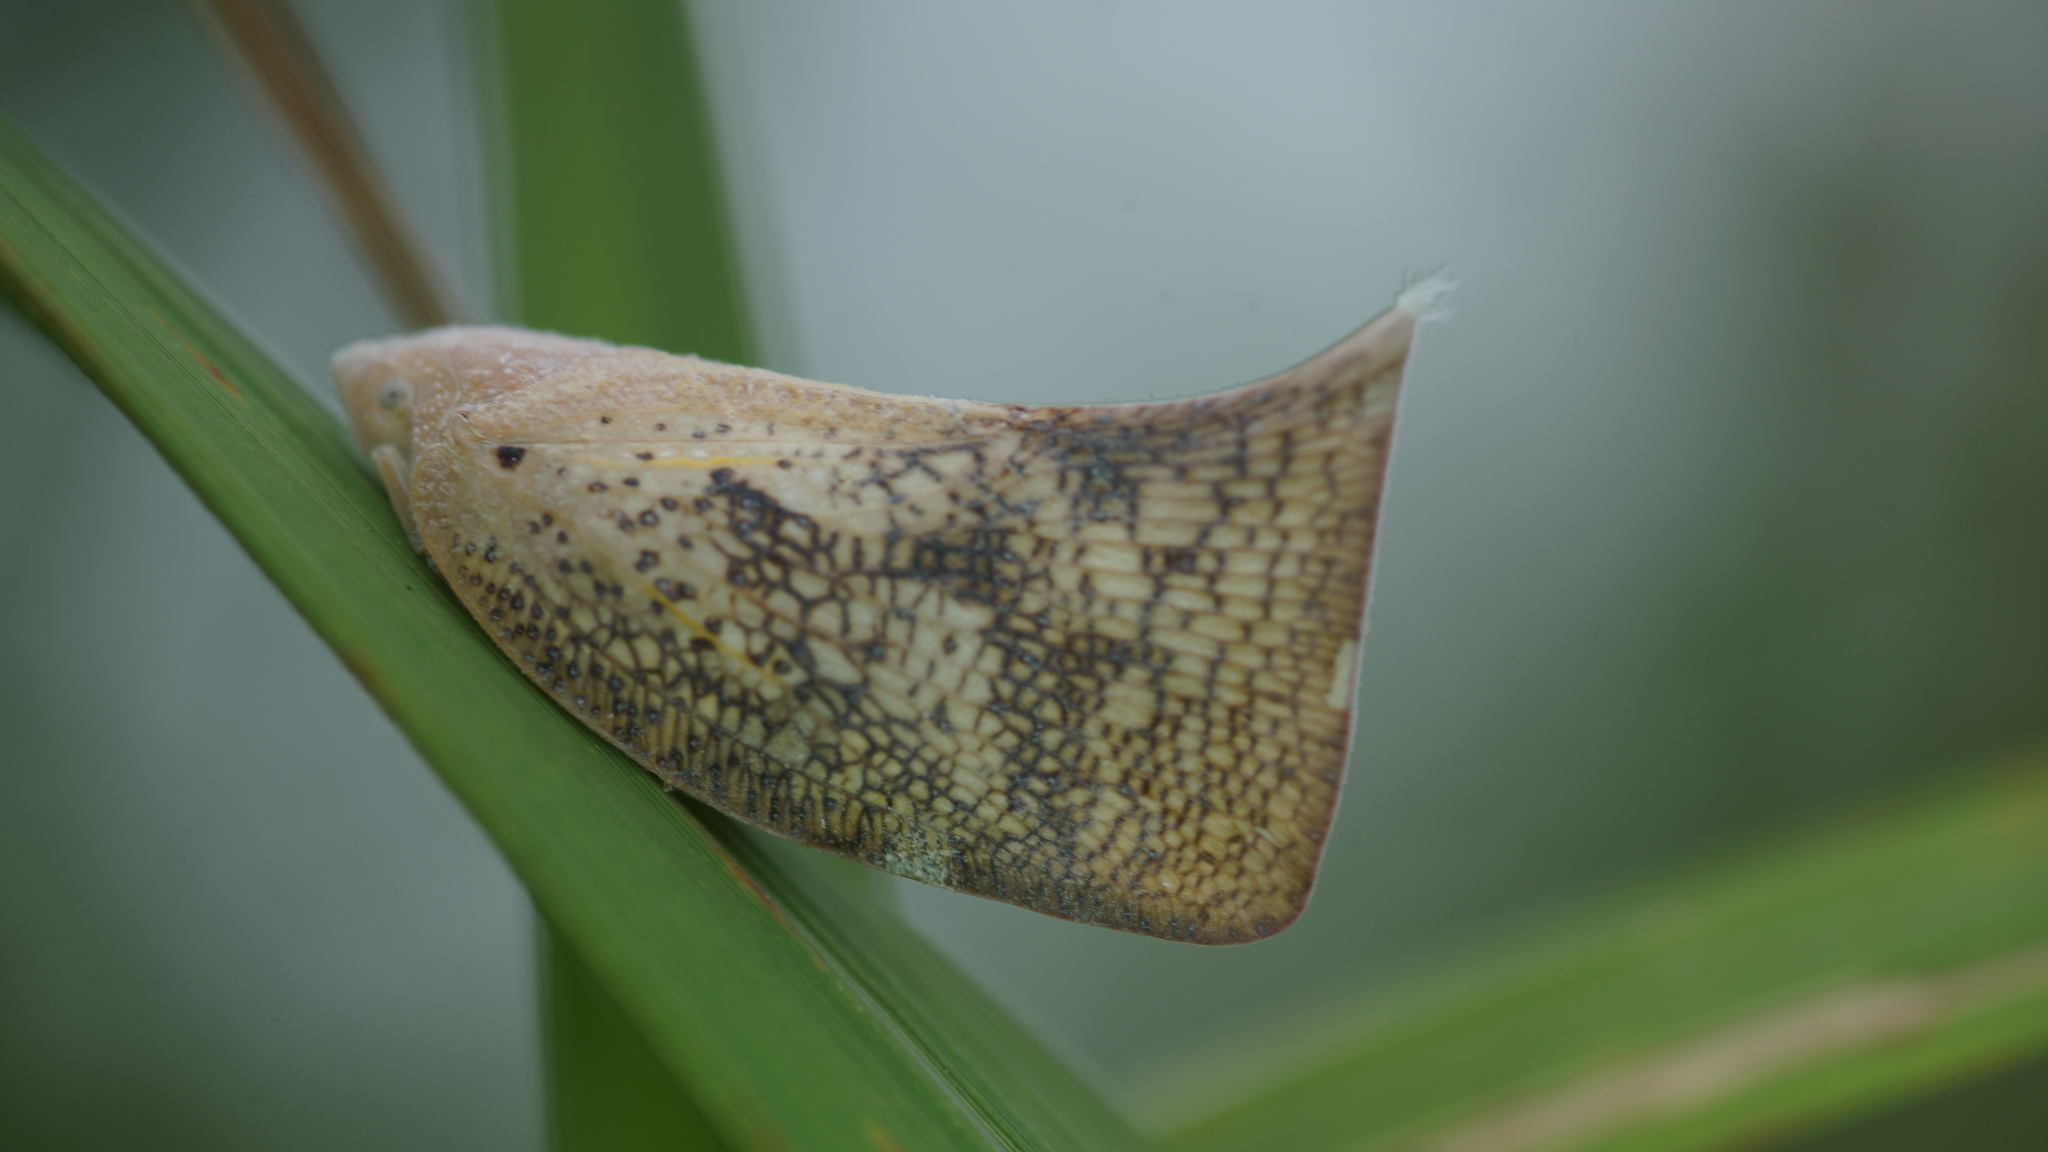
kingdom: Animalia
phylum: Arthropoda
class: Insecta
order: Hemiptera
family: Flatidae
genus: Lawana
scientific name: Lawana conspersa
